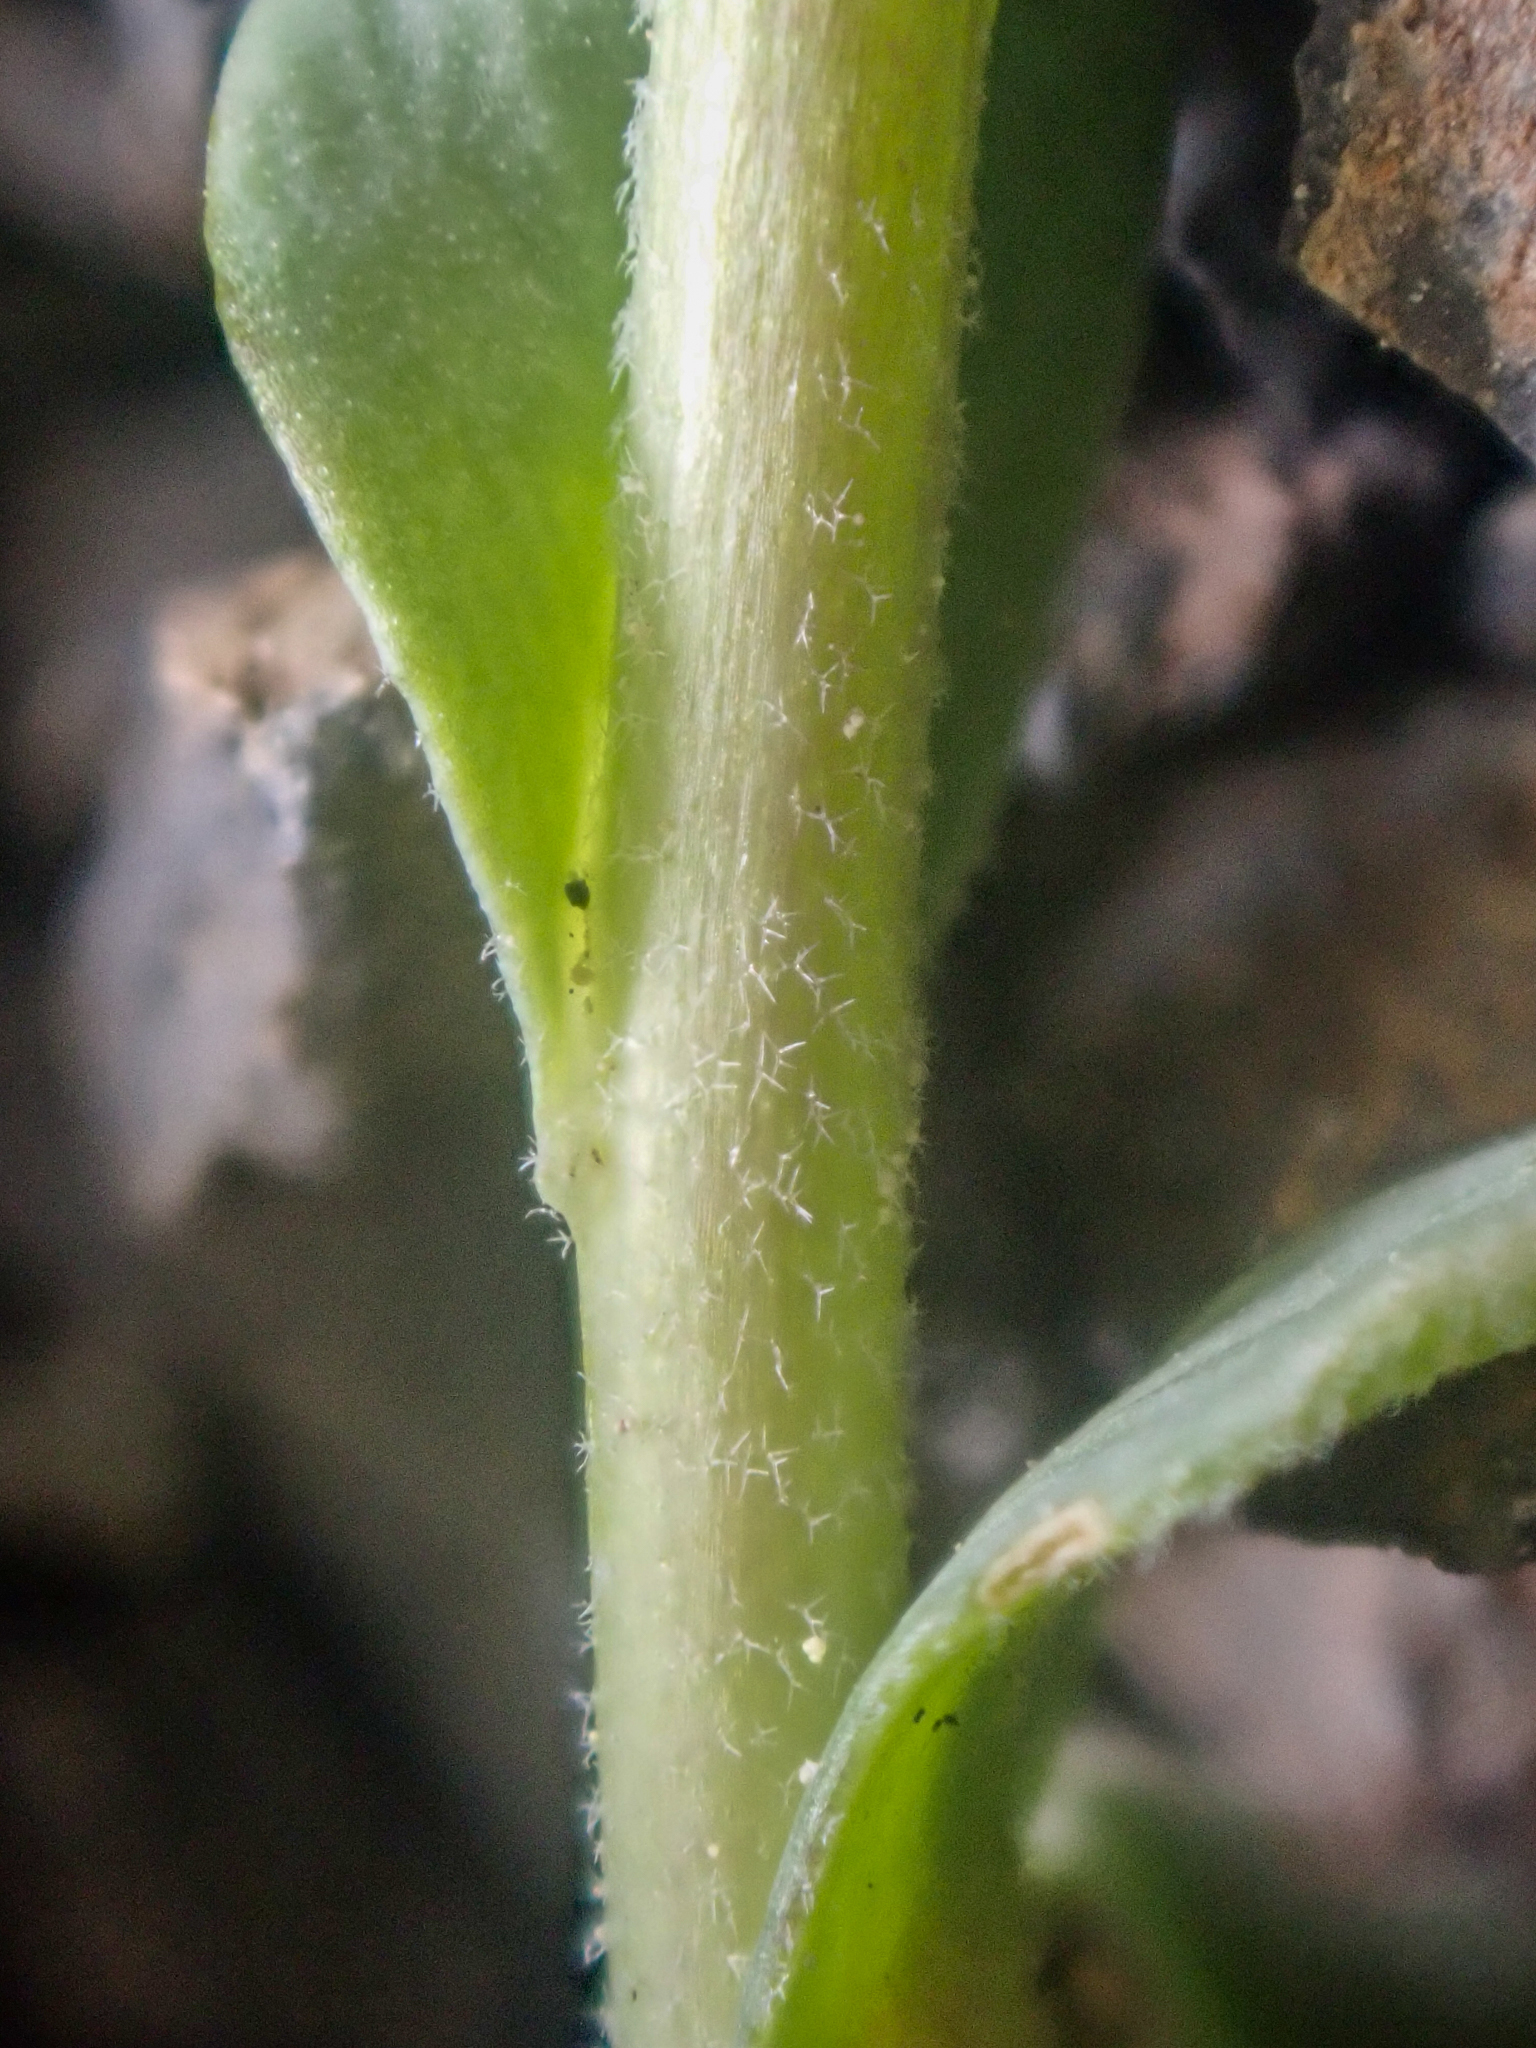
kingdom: Plantae
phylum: Tracheophyta
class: Magnoliopsida
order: Brassicales
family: Brassicaceae
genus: Boechera
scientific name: Boechera lemmonii
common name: Lemmon's rockcress
